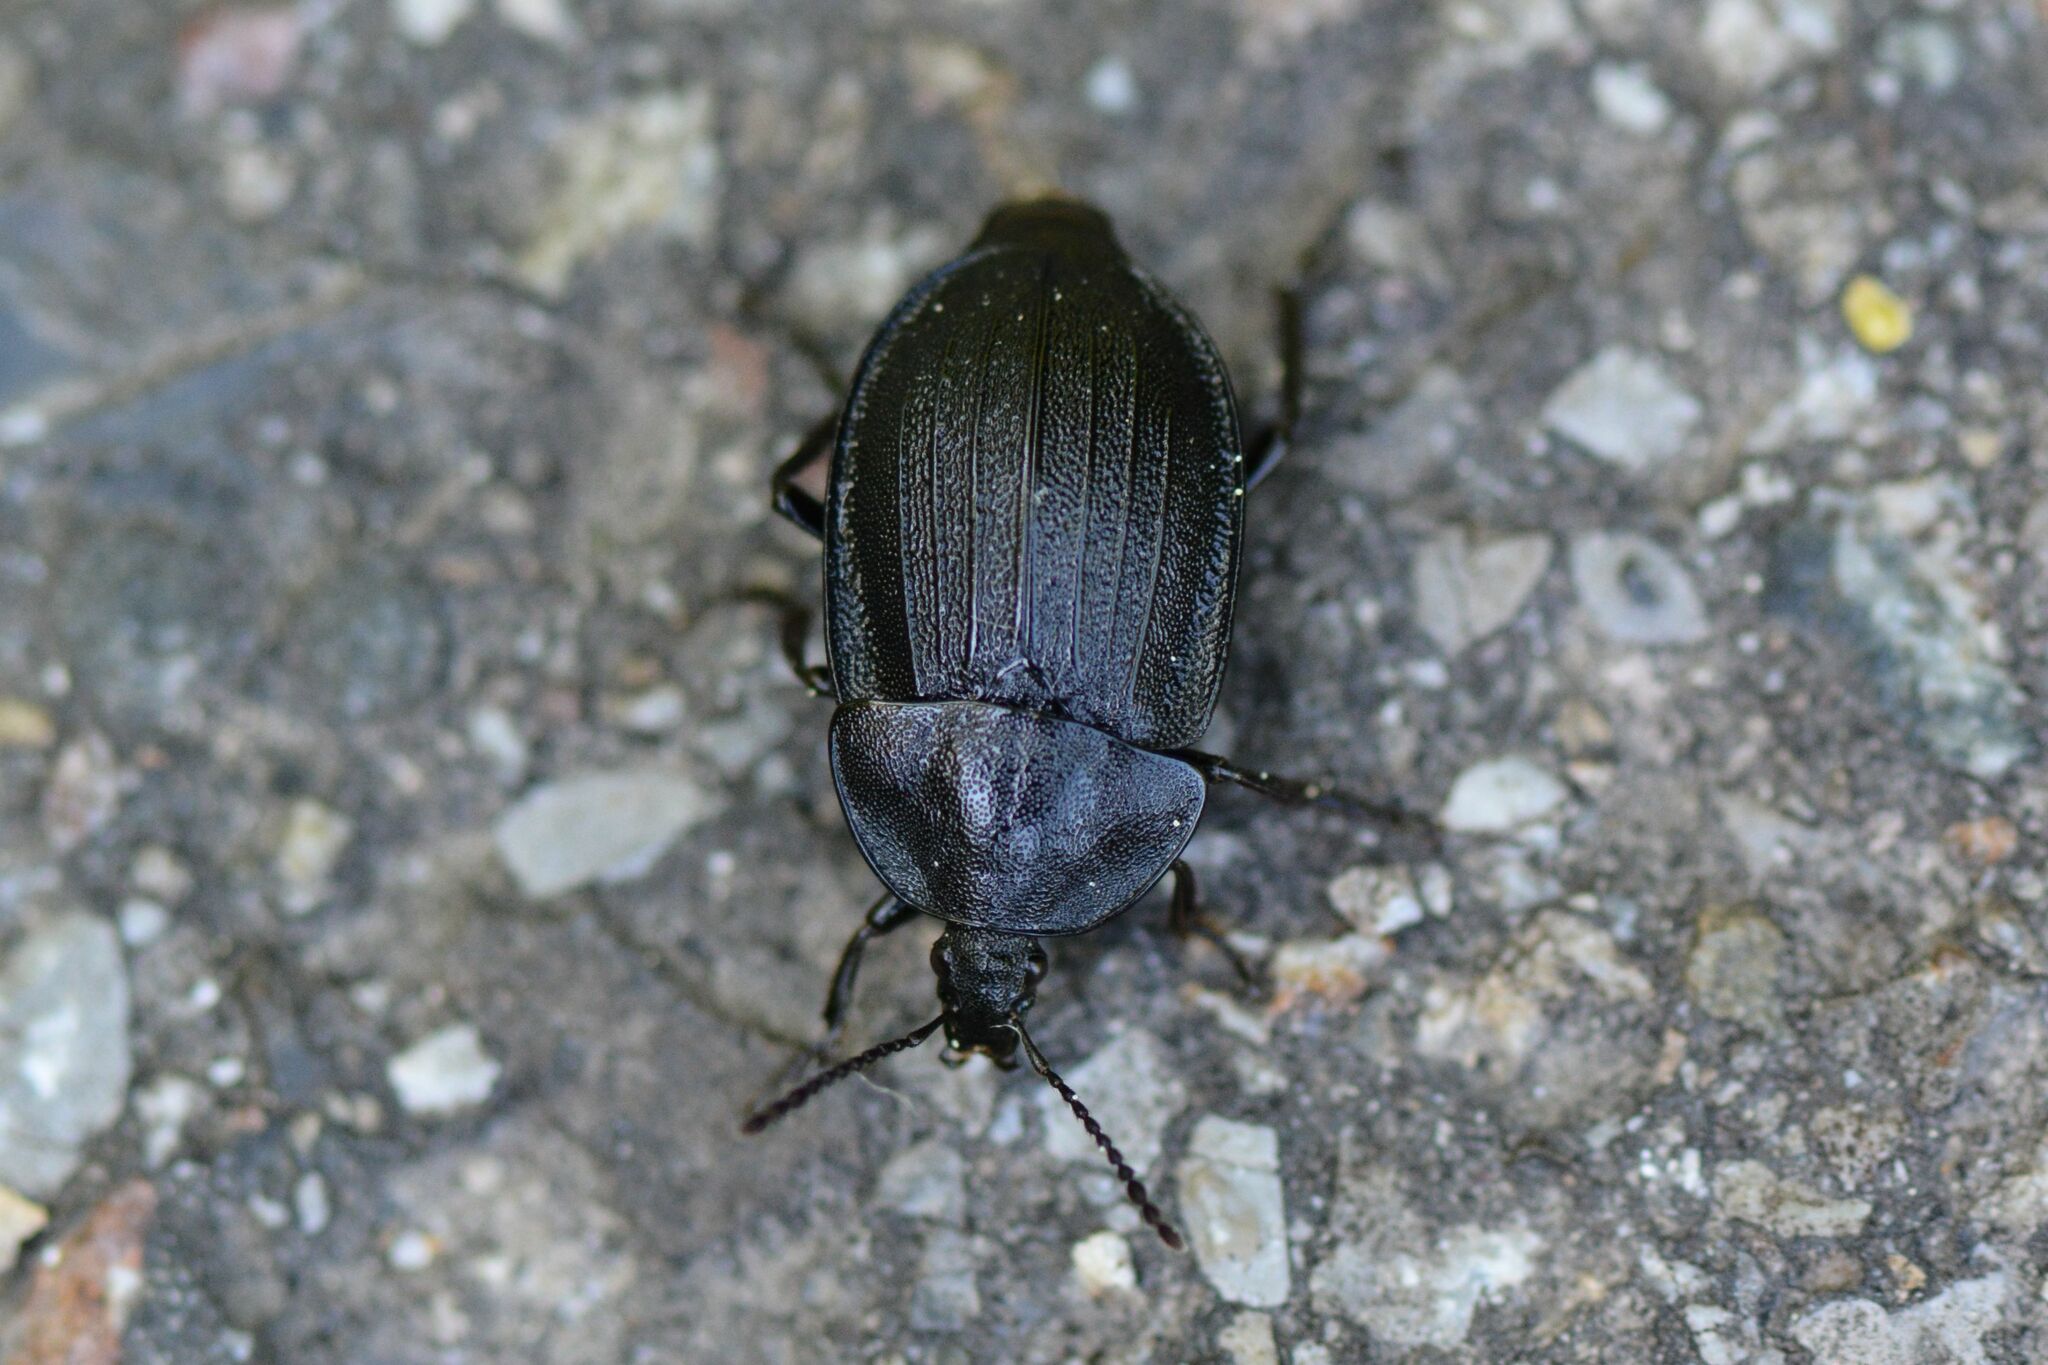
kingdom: Animalia
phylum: Arthropoda
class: Insecta
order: Coleoptera
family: Staphylinidae
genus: Silpha
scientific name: Silpha atrata
